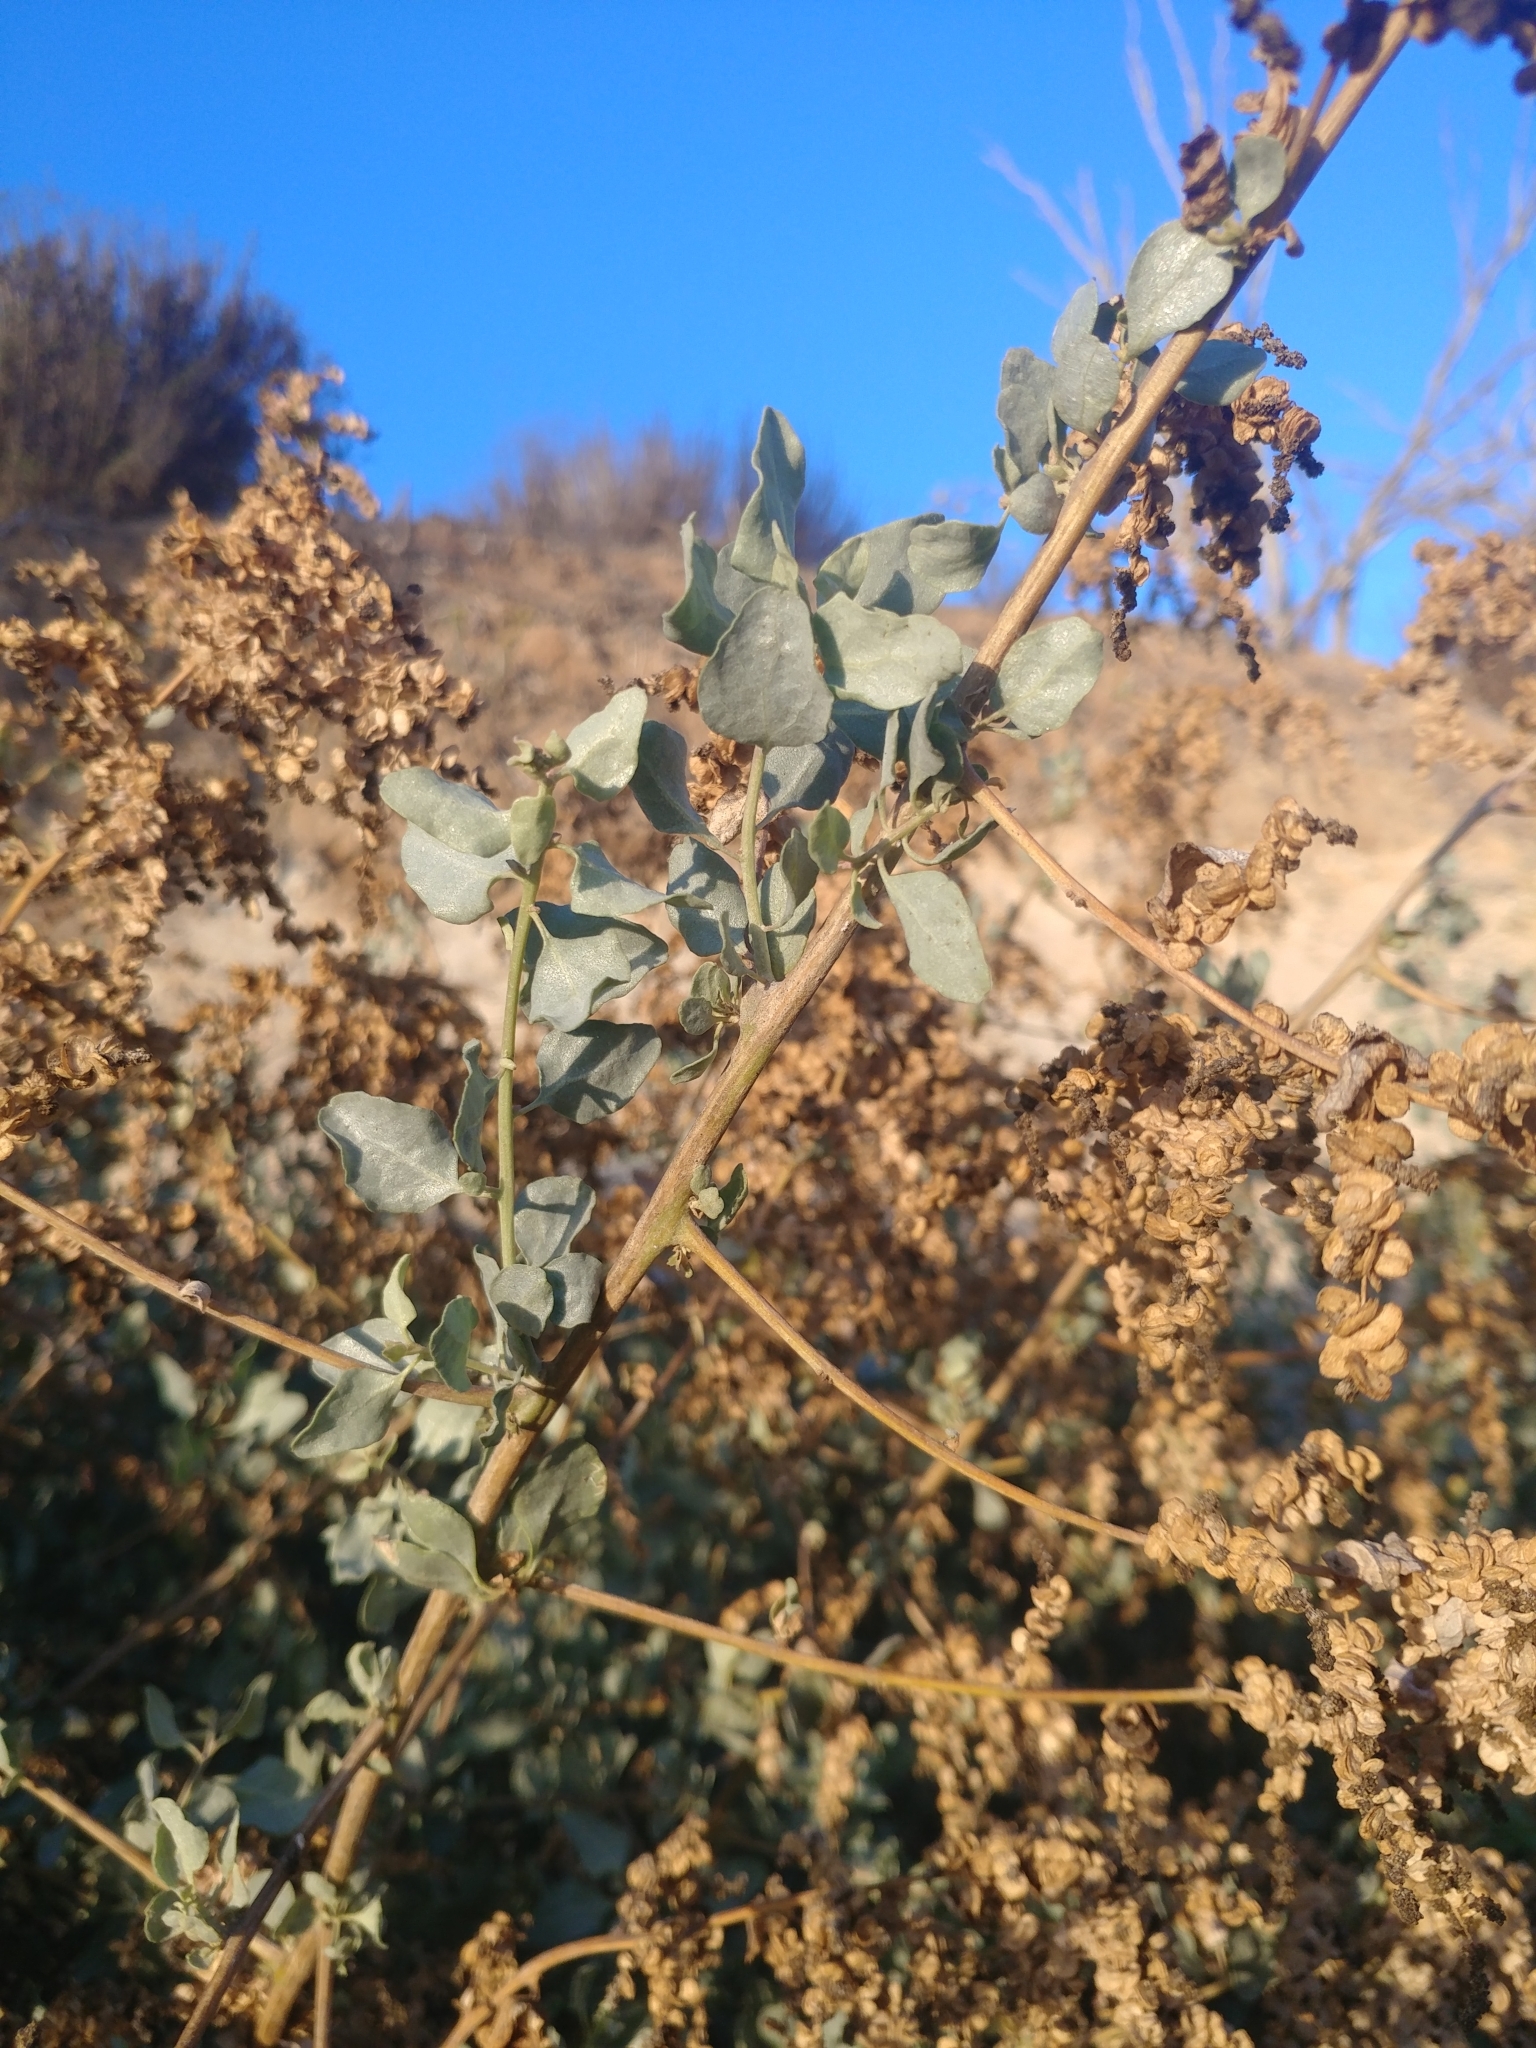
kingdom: Plantae
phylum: Tracheophyta
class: Magnoliopsida
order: Caryophyllales
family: Amaranthaceae
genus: Atriplex
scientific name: Atriplex lentiformis
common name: Big saltbush
